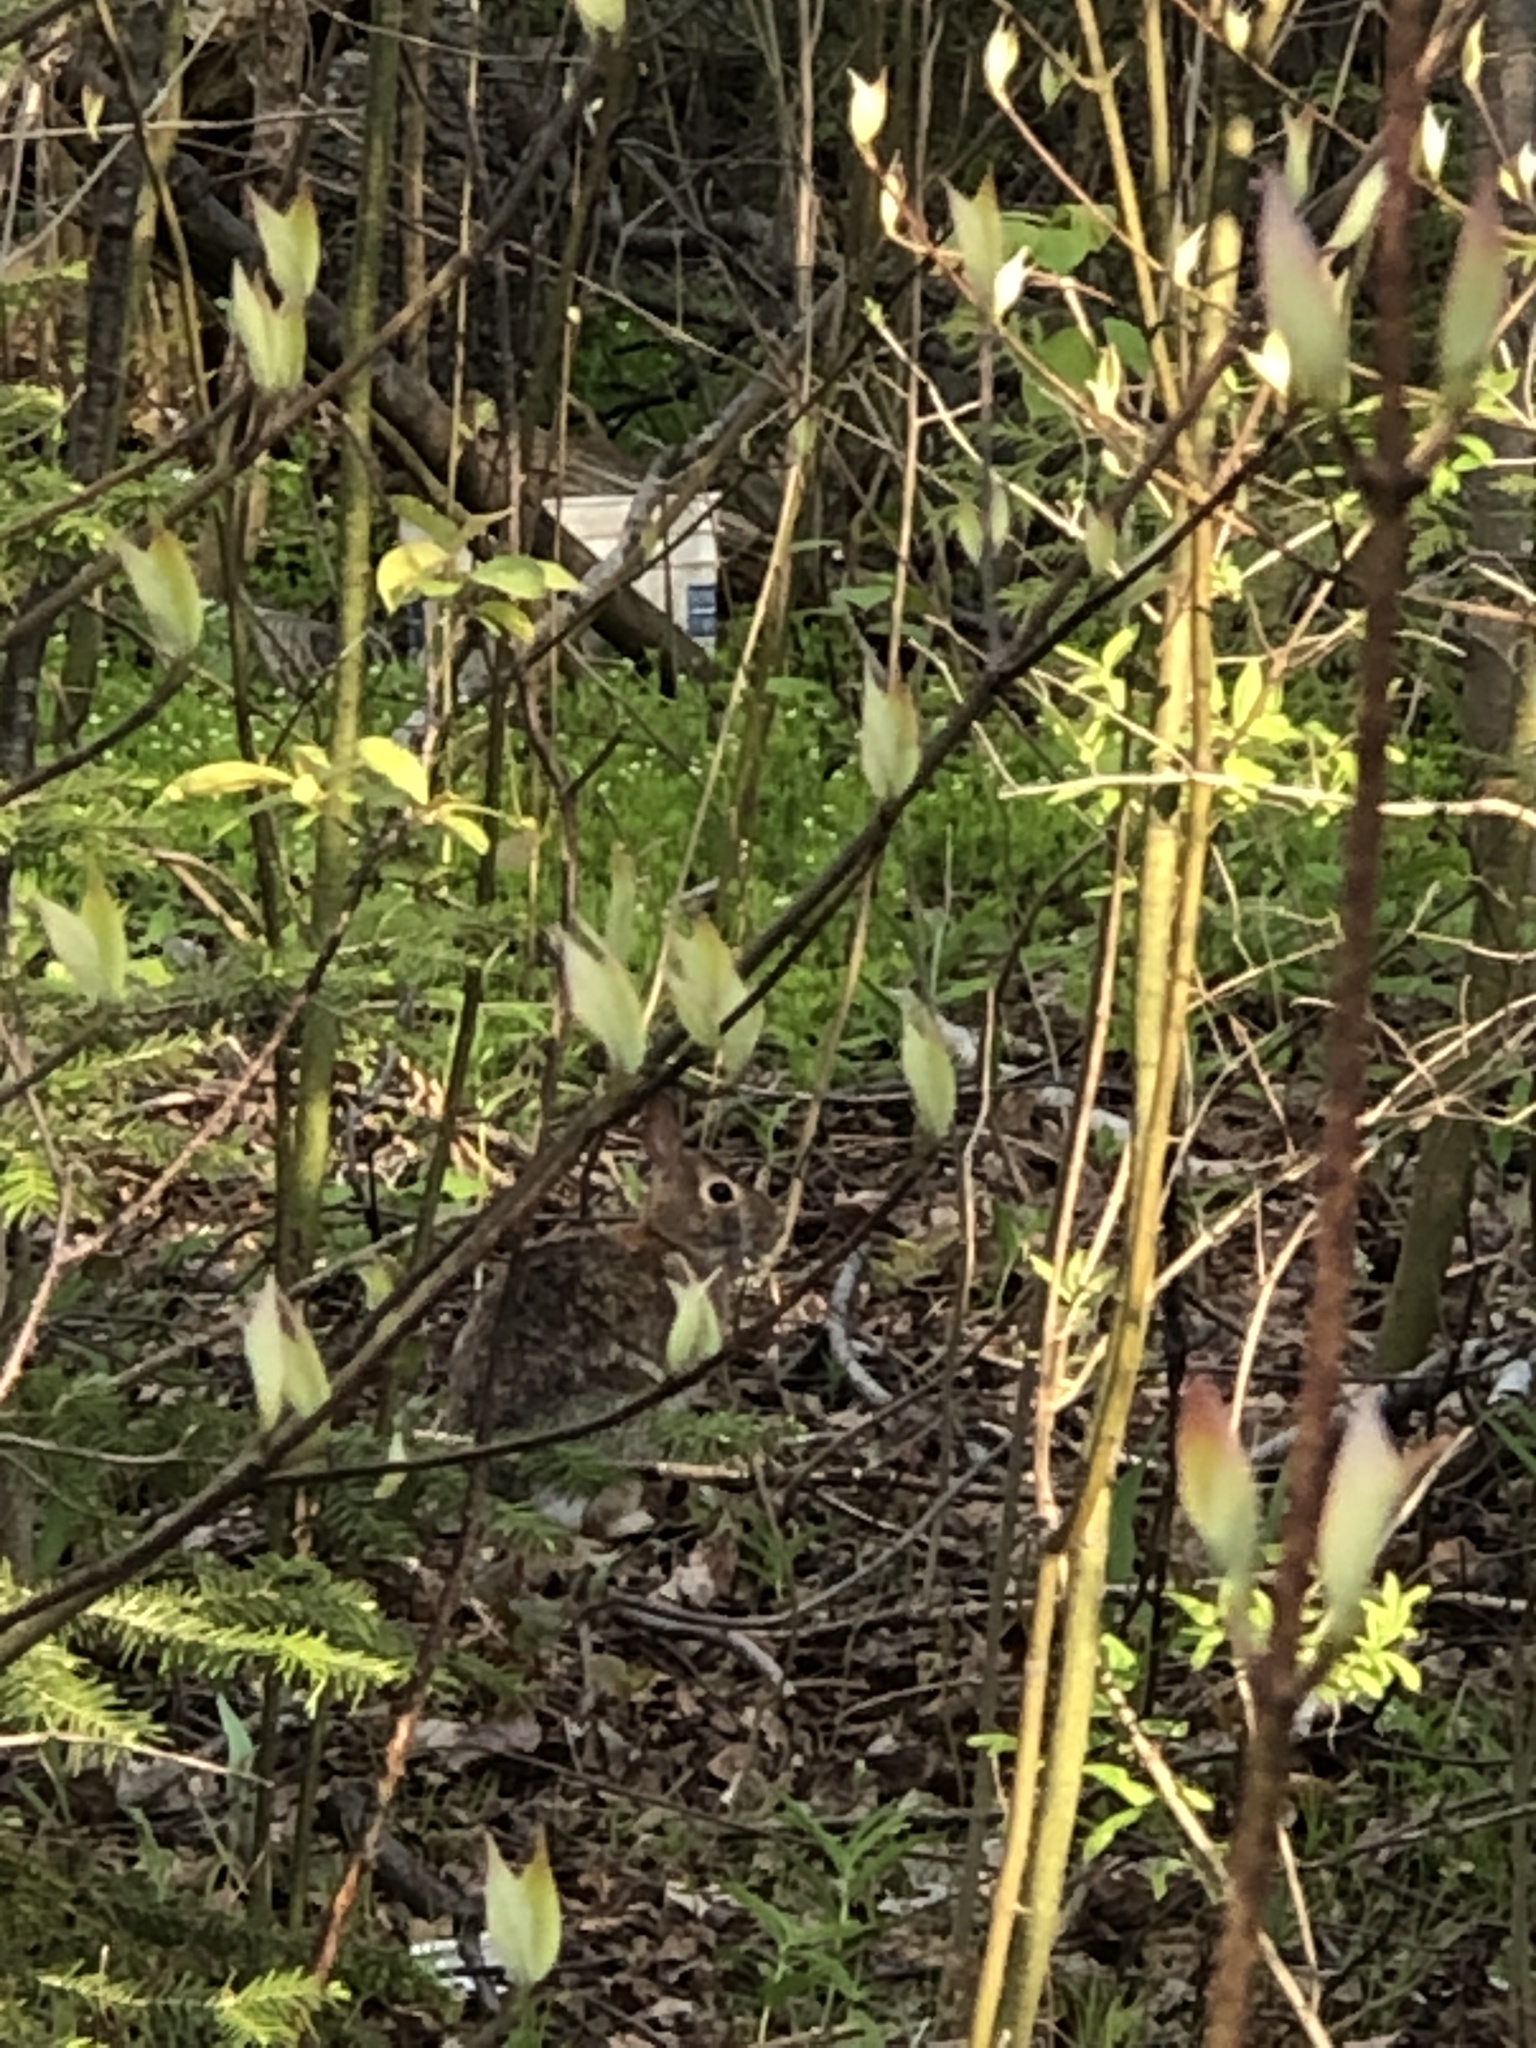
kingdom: Animalia
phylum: Chordata
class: Mammalia
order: Lagomorpha
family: Leporidae
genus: Sylvilagus
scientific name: Sylvilagus floridanus
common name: Eastern cottontail
